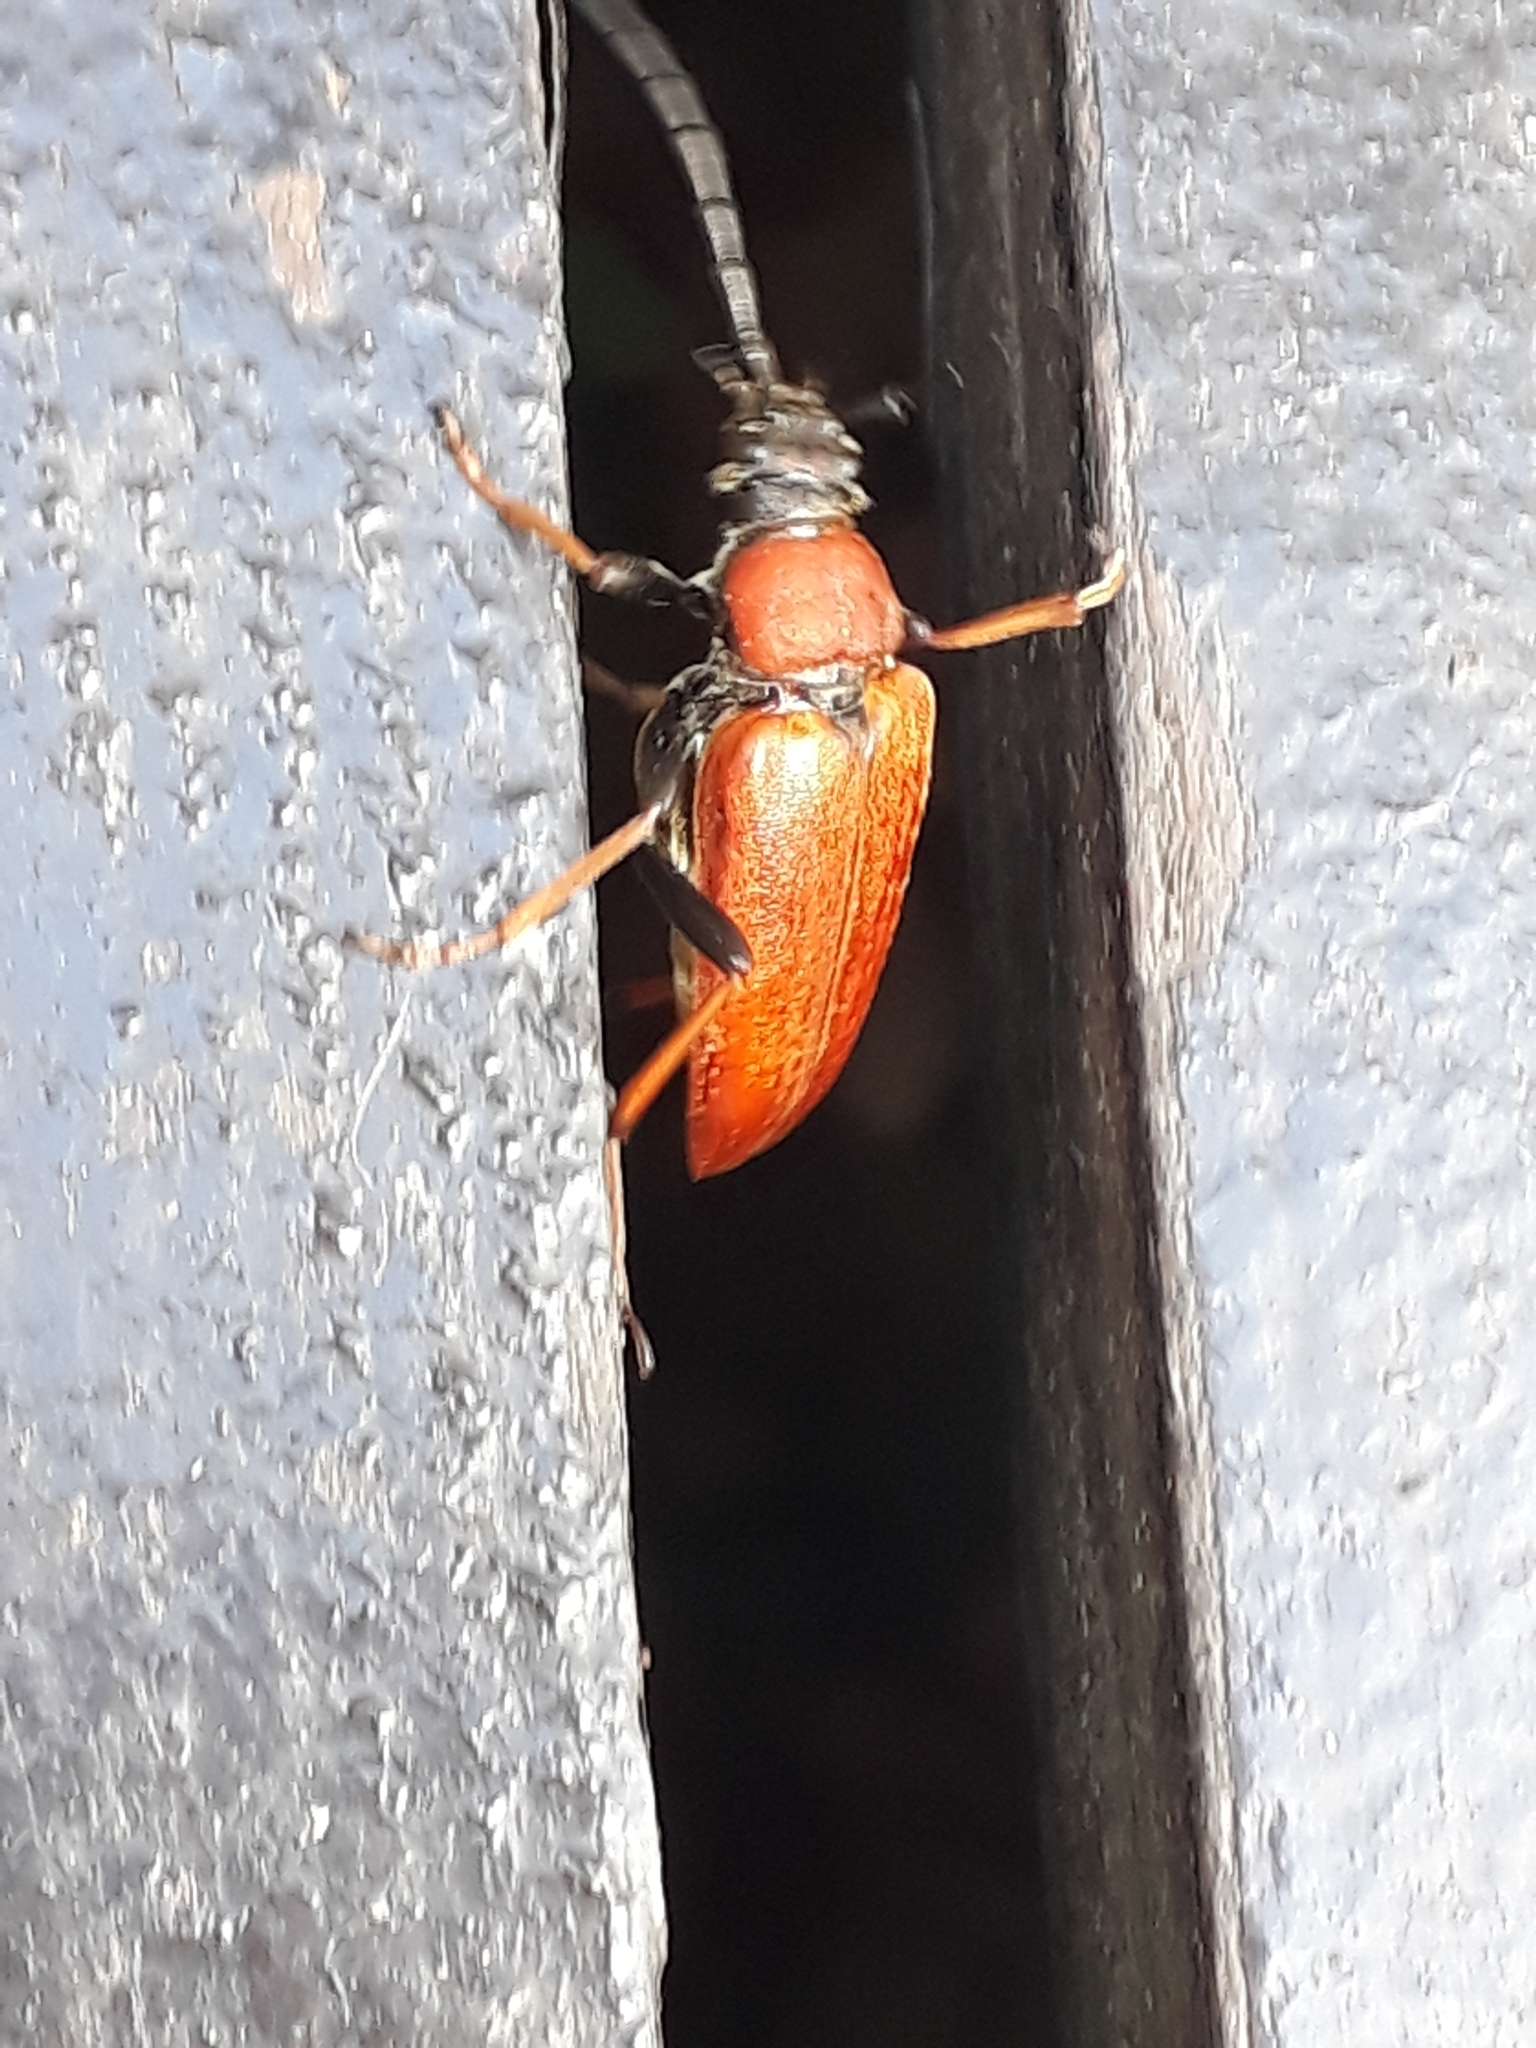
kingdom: Animalia
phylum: Arthropoda
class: Insecta
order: Coleoptera
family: Cerambycidae
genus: Stictoleptura
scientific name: Stictoleptura rubra
